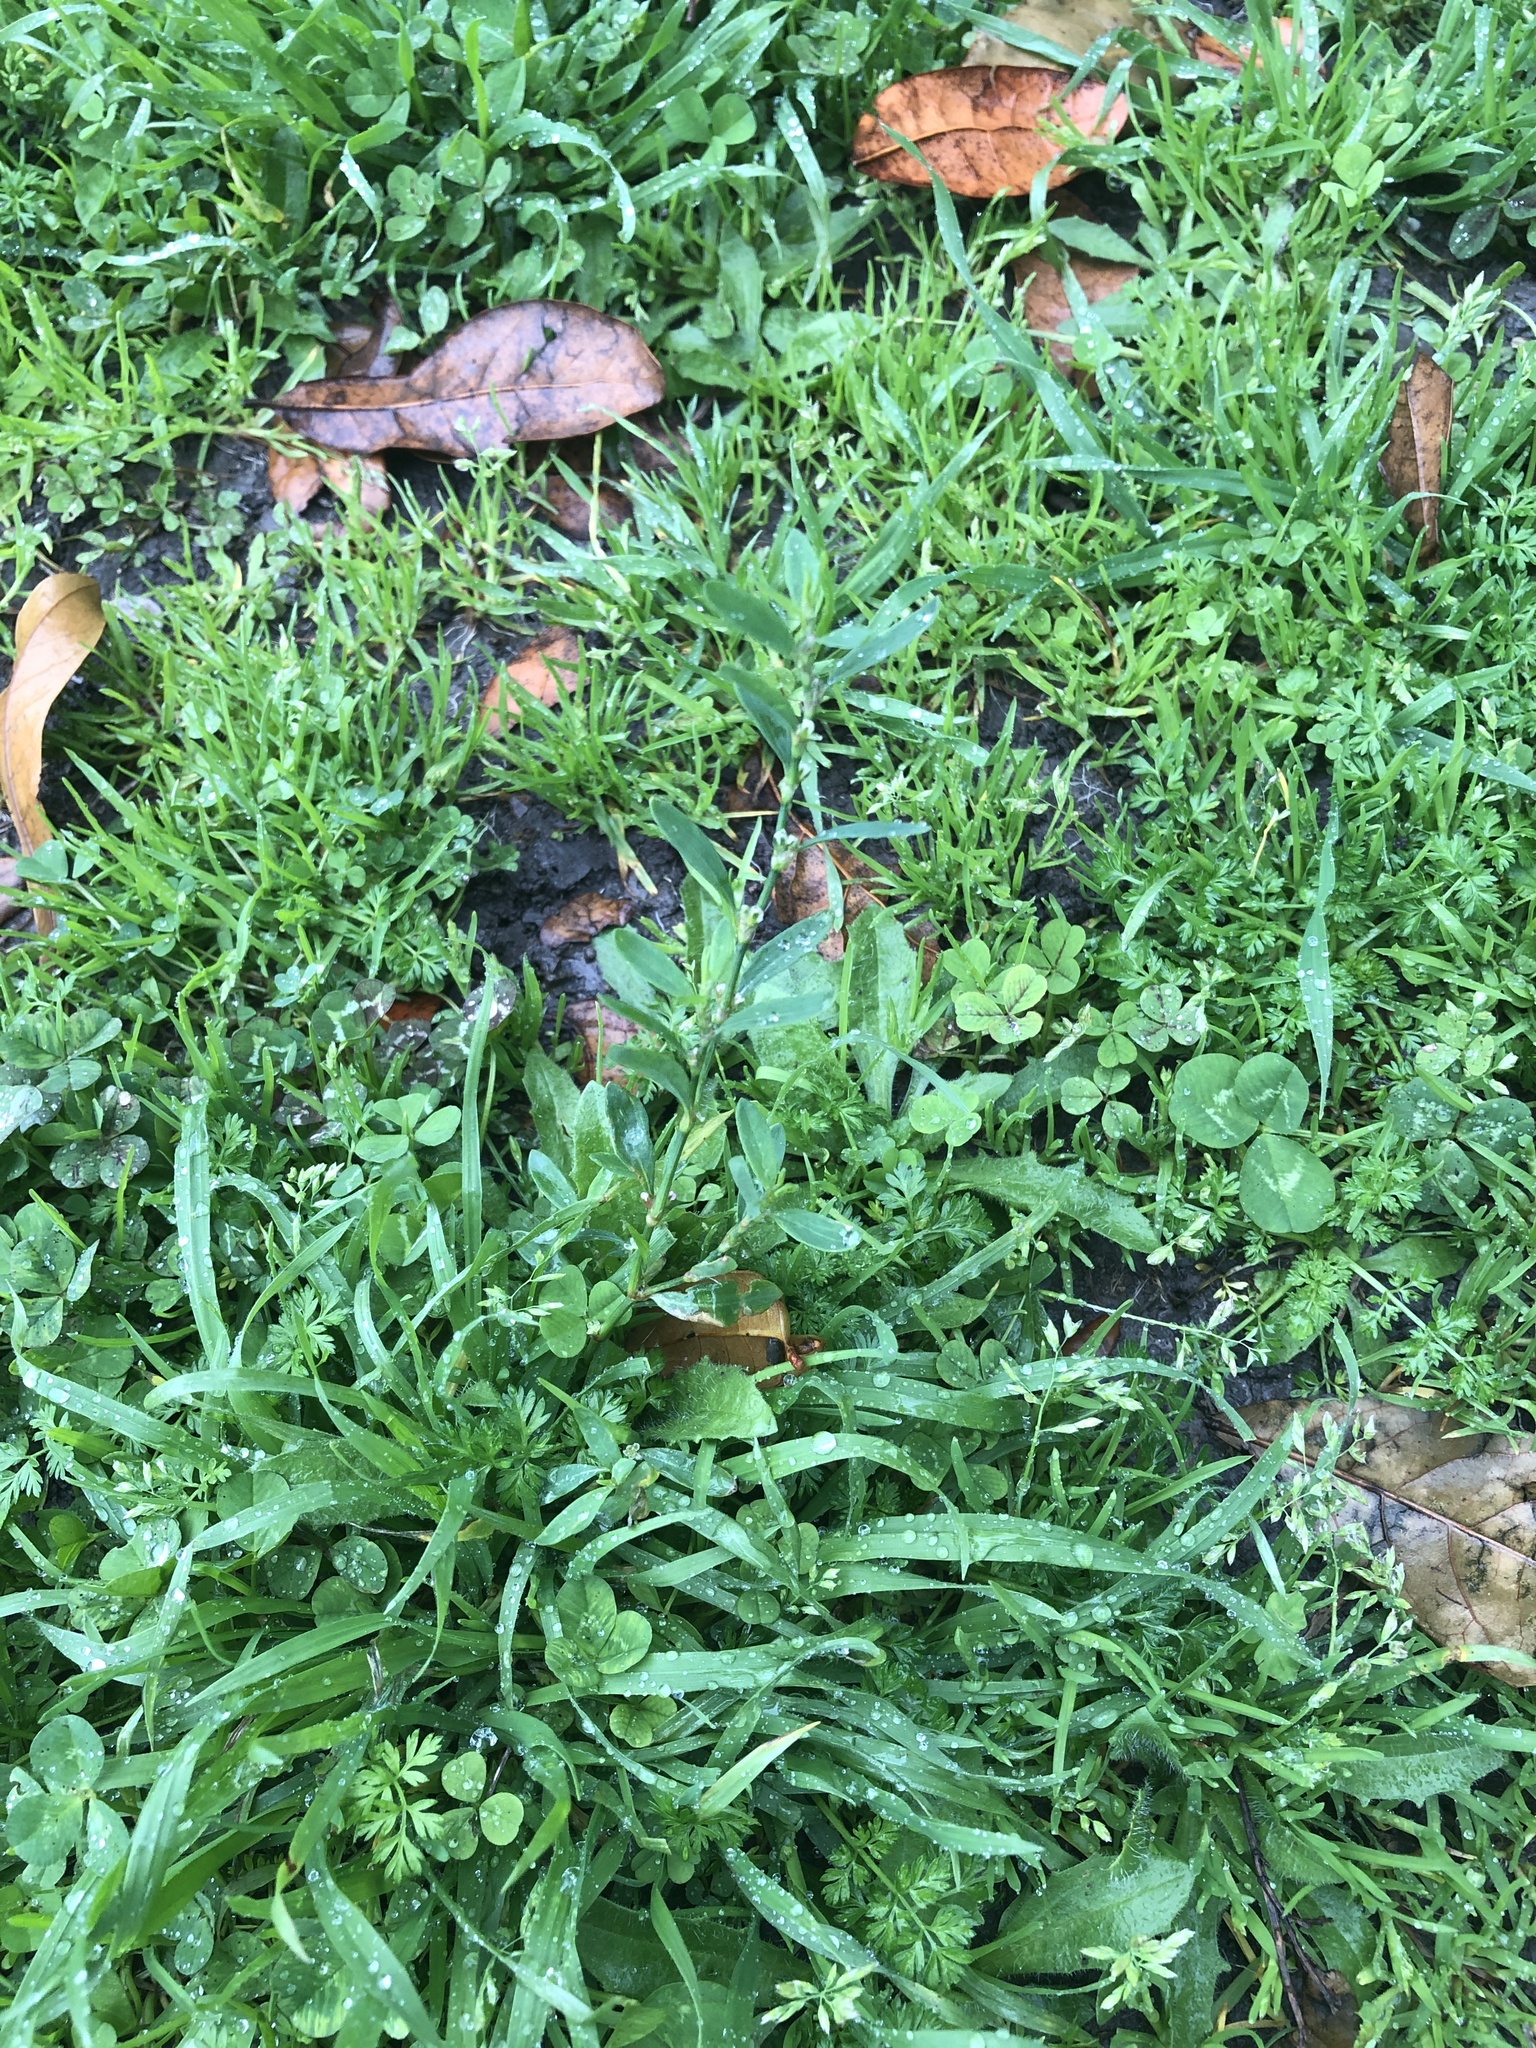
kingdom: Plantae
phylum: Tracheophyta
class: Magnoliopsida
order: Caryophyllales
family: Polygonaceae
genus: Polygonum
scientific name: Polygonum aviculare
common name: Prostrate knotweed
